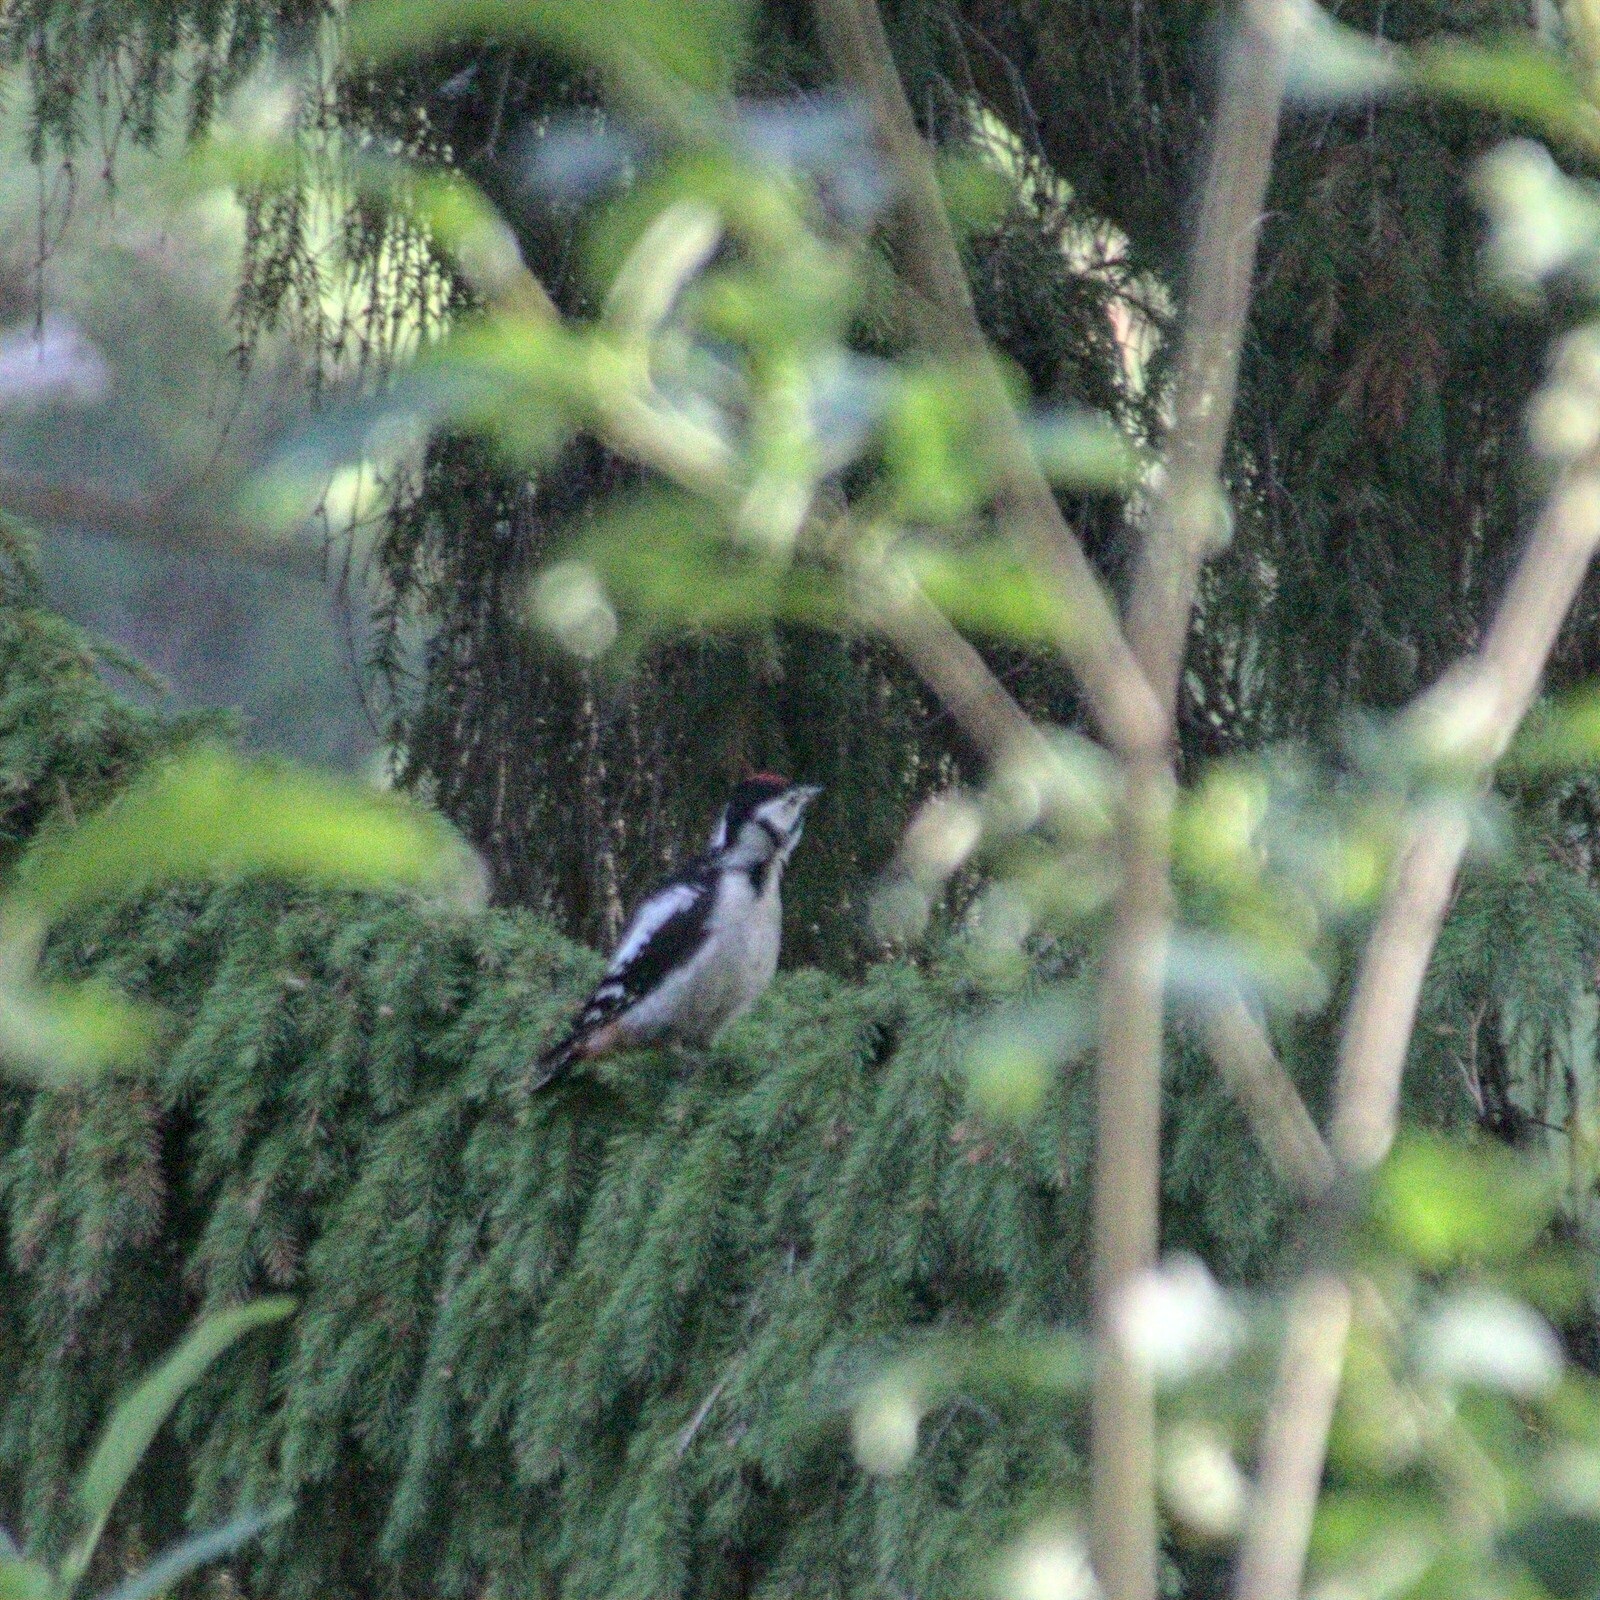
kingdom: Animalia
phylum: Chordata
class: Aves
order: Piciformes
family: Picidae
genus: Dendrocopos
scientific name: Dendrocopos major
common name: Great spotted woodpecker
